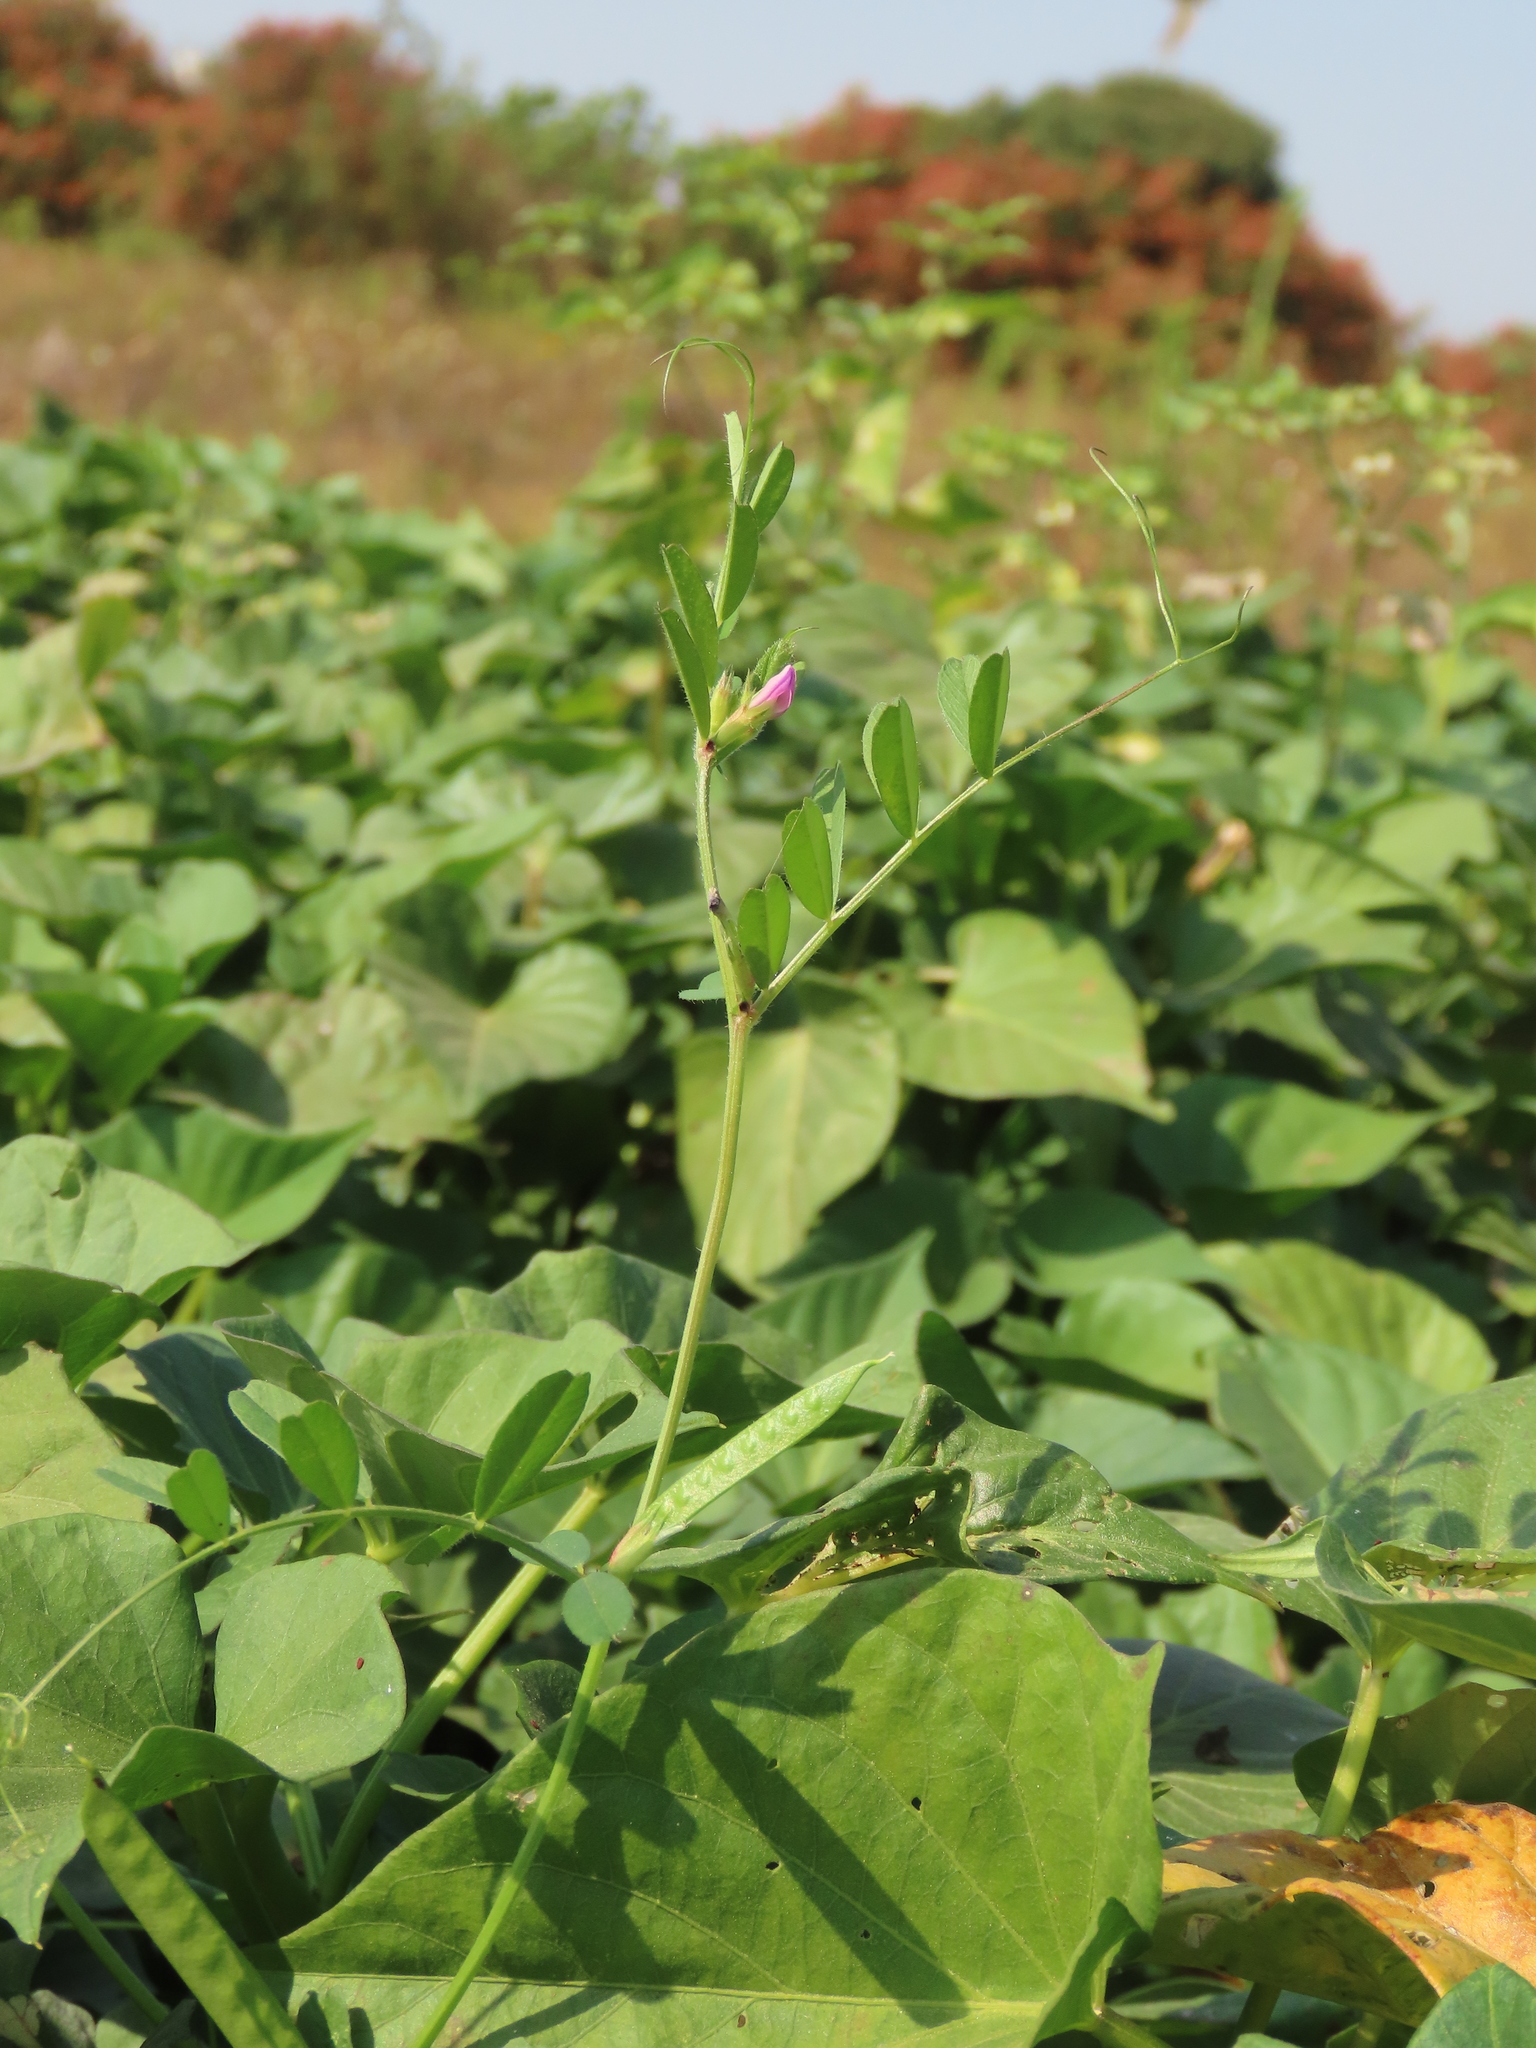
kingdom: Plantae
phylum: Tracheophyta
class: Magnoliopsida
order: Fabales
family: Fabaceae
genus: Vicia
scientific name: Vicia sativa
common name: Garden vetch
